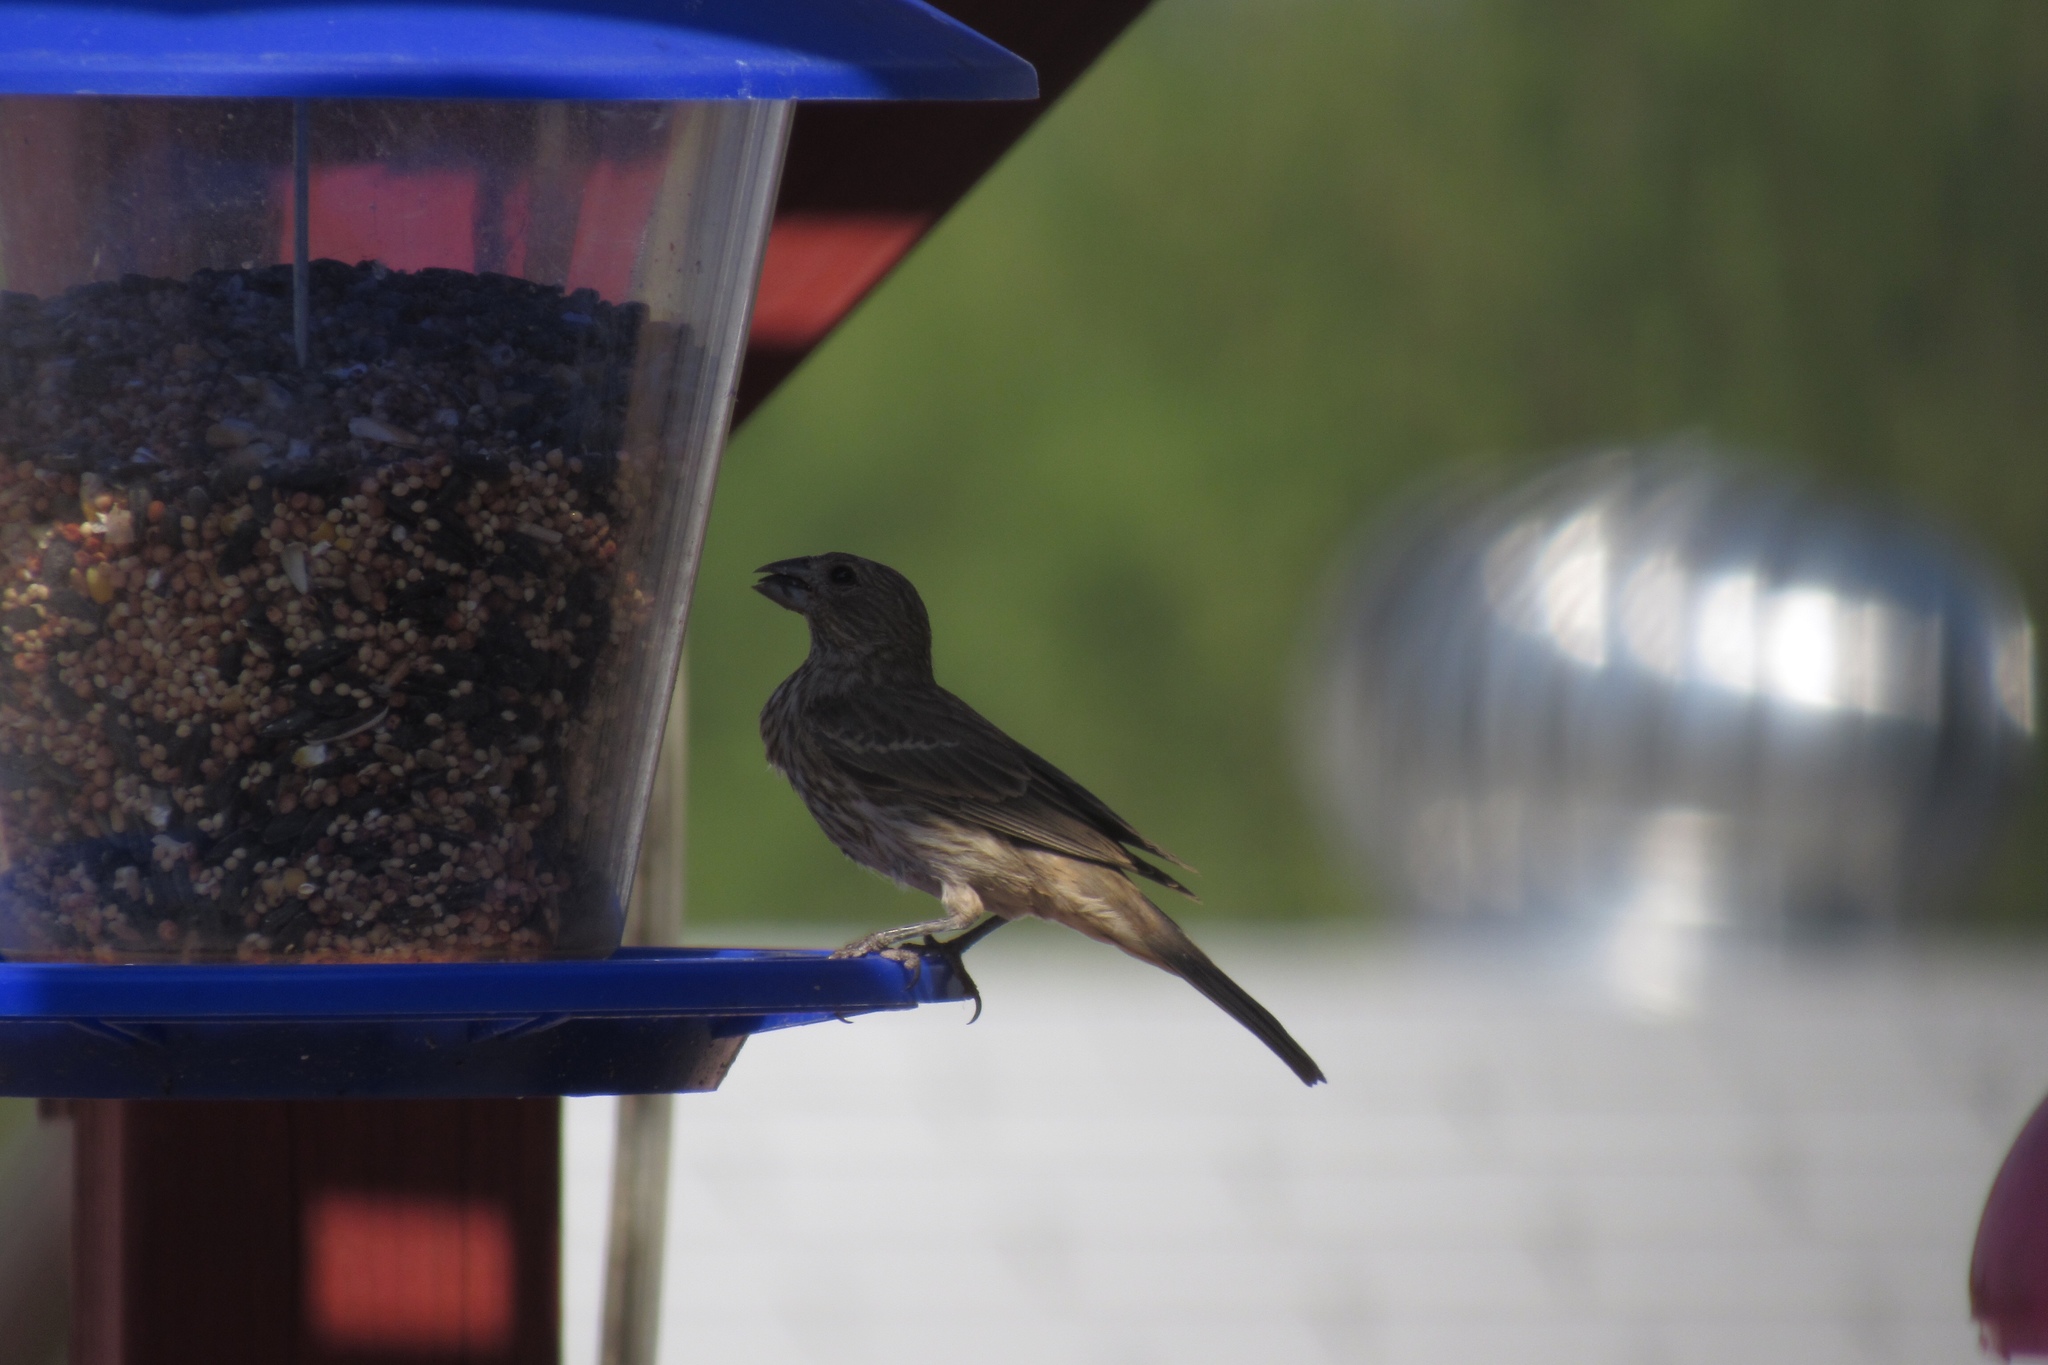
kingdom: Animalia
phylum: Chordata
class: Aves
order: Passeriformes
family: Fringillidae
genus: Haemorhous
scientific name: Haemorhous mexicanus
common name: House finch
